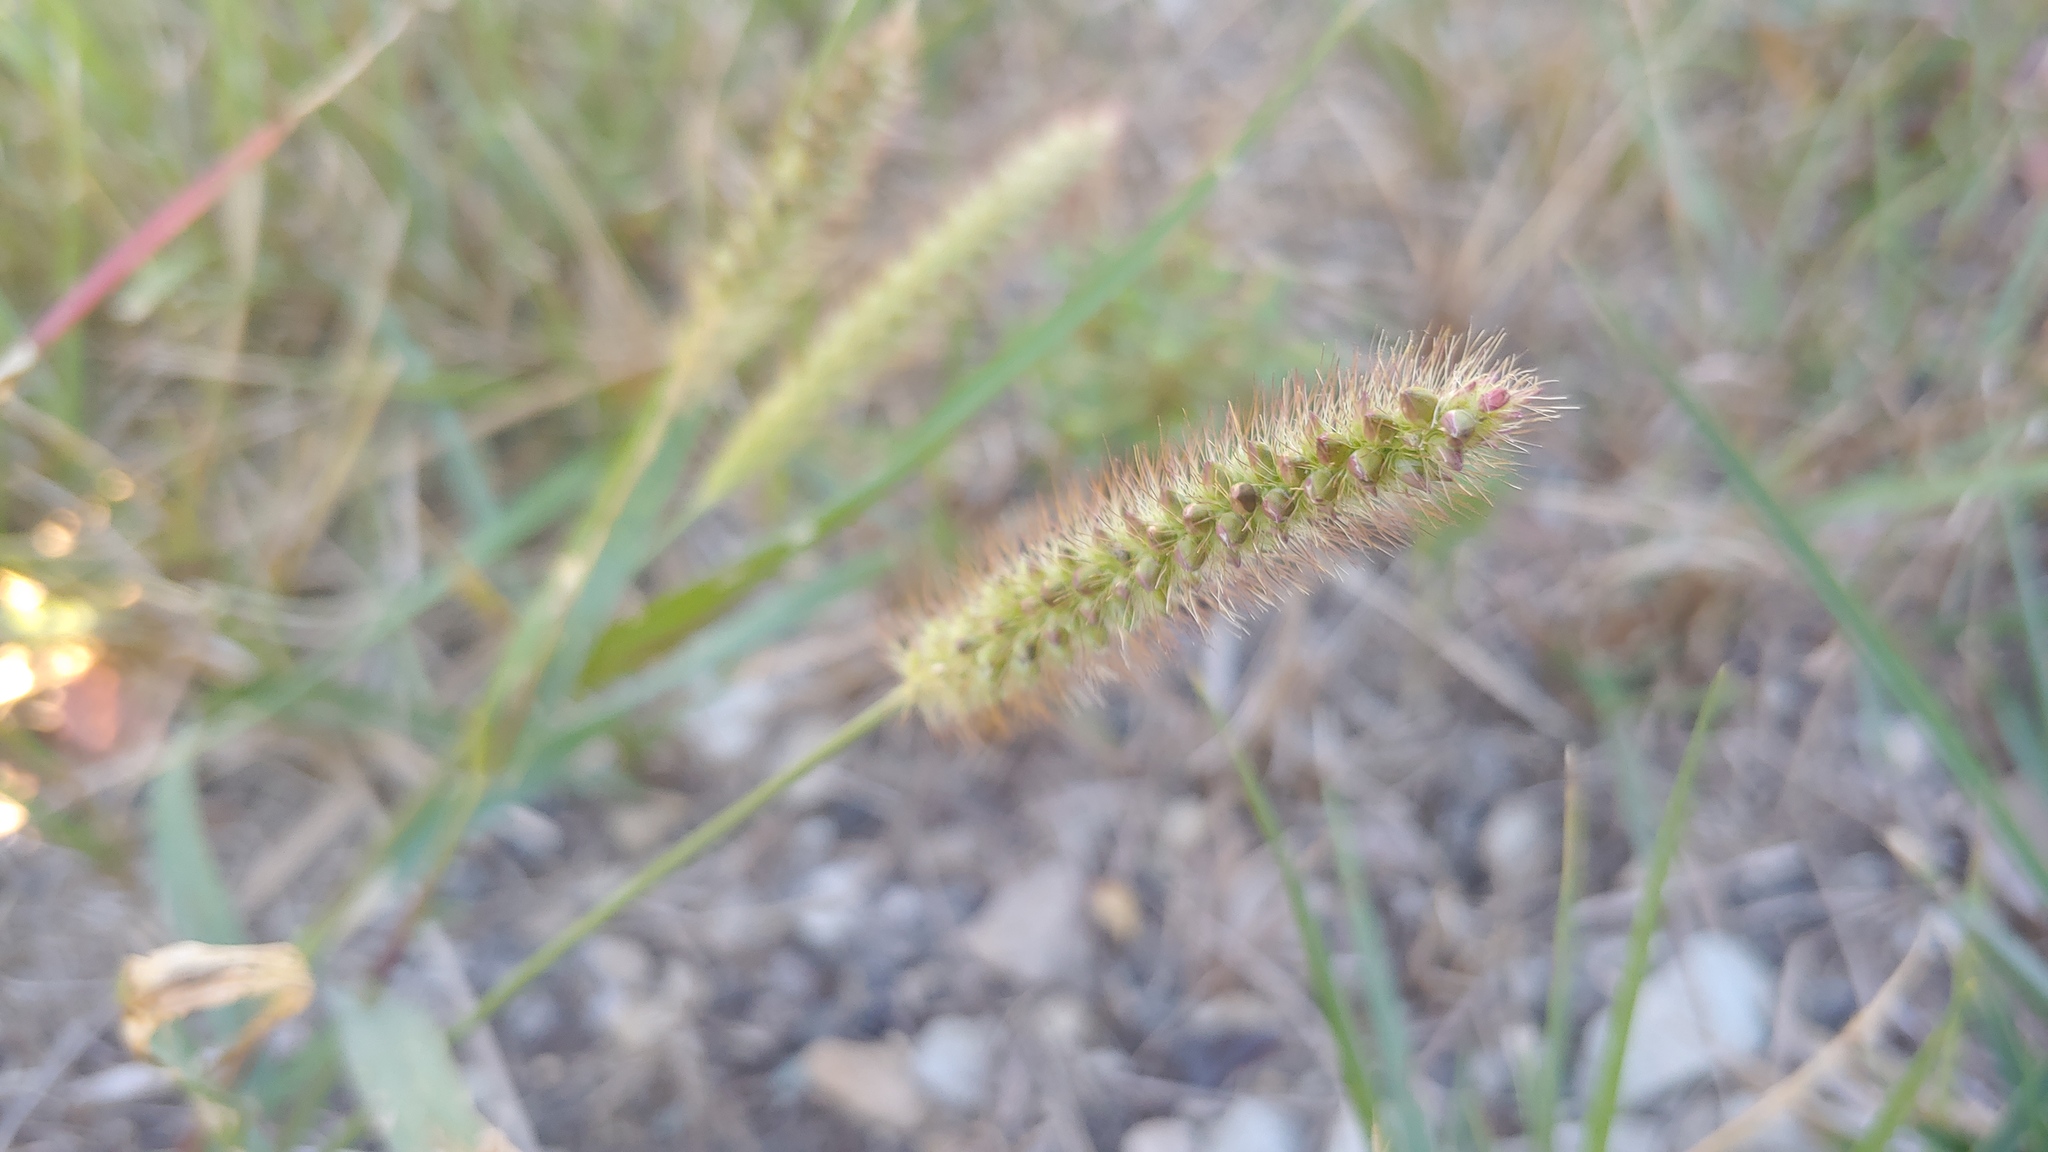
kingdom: Plantae
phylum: Tracheophyta
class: Liliopsida
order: Poales
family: Poaceae
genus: Setaria
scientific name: Setaria pumila
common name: Yellow bristle-grass
